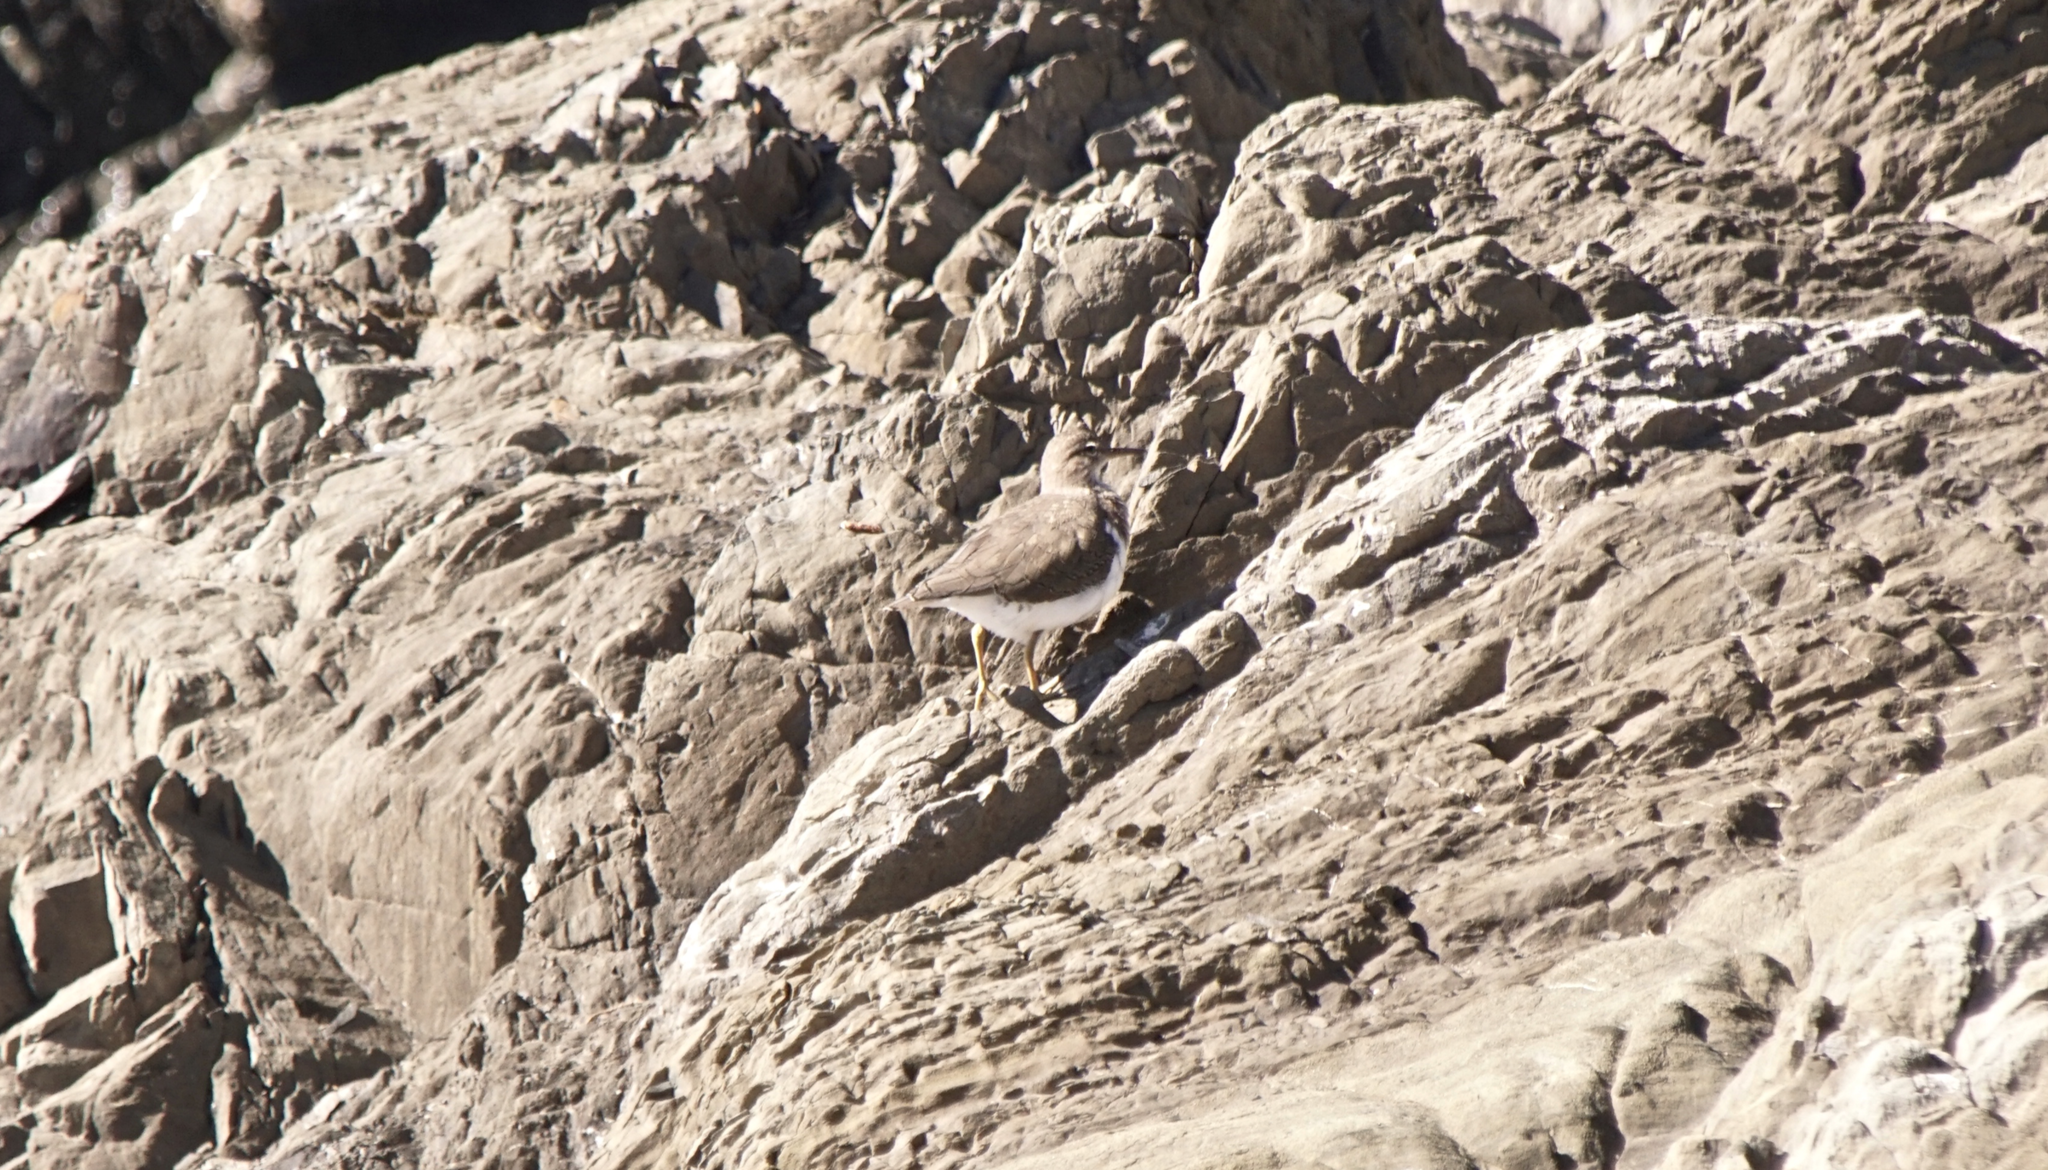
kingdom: Animalia
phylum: Chordata
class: Aves
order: Charadriiformes
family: Scolopacidae
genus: Actitis
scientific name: Actitis macularius
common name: Spotted sandpiper
